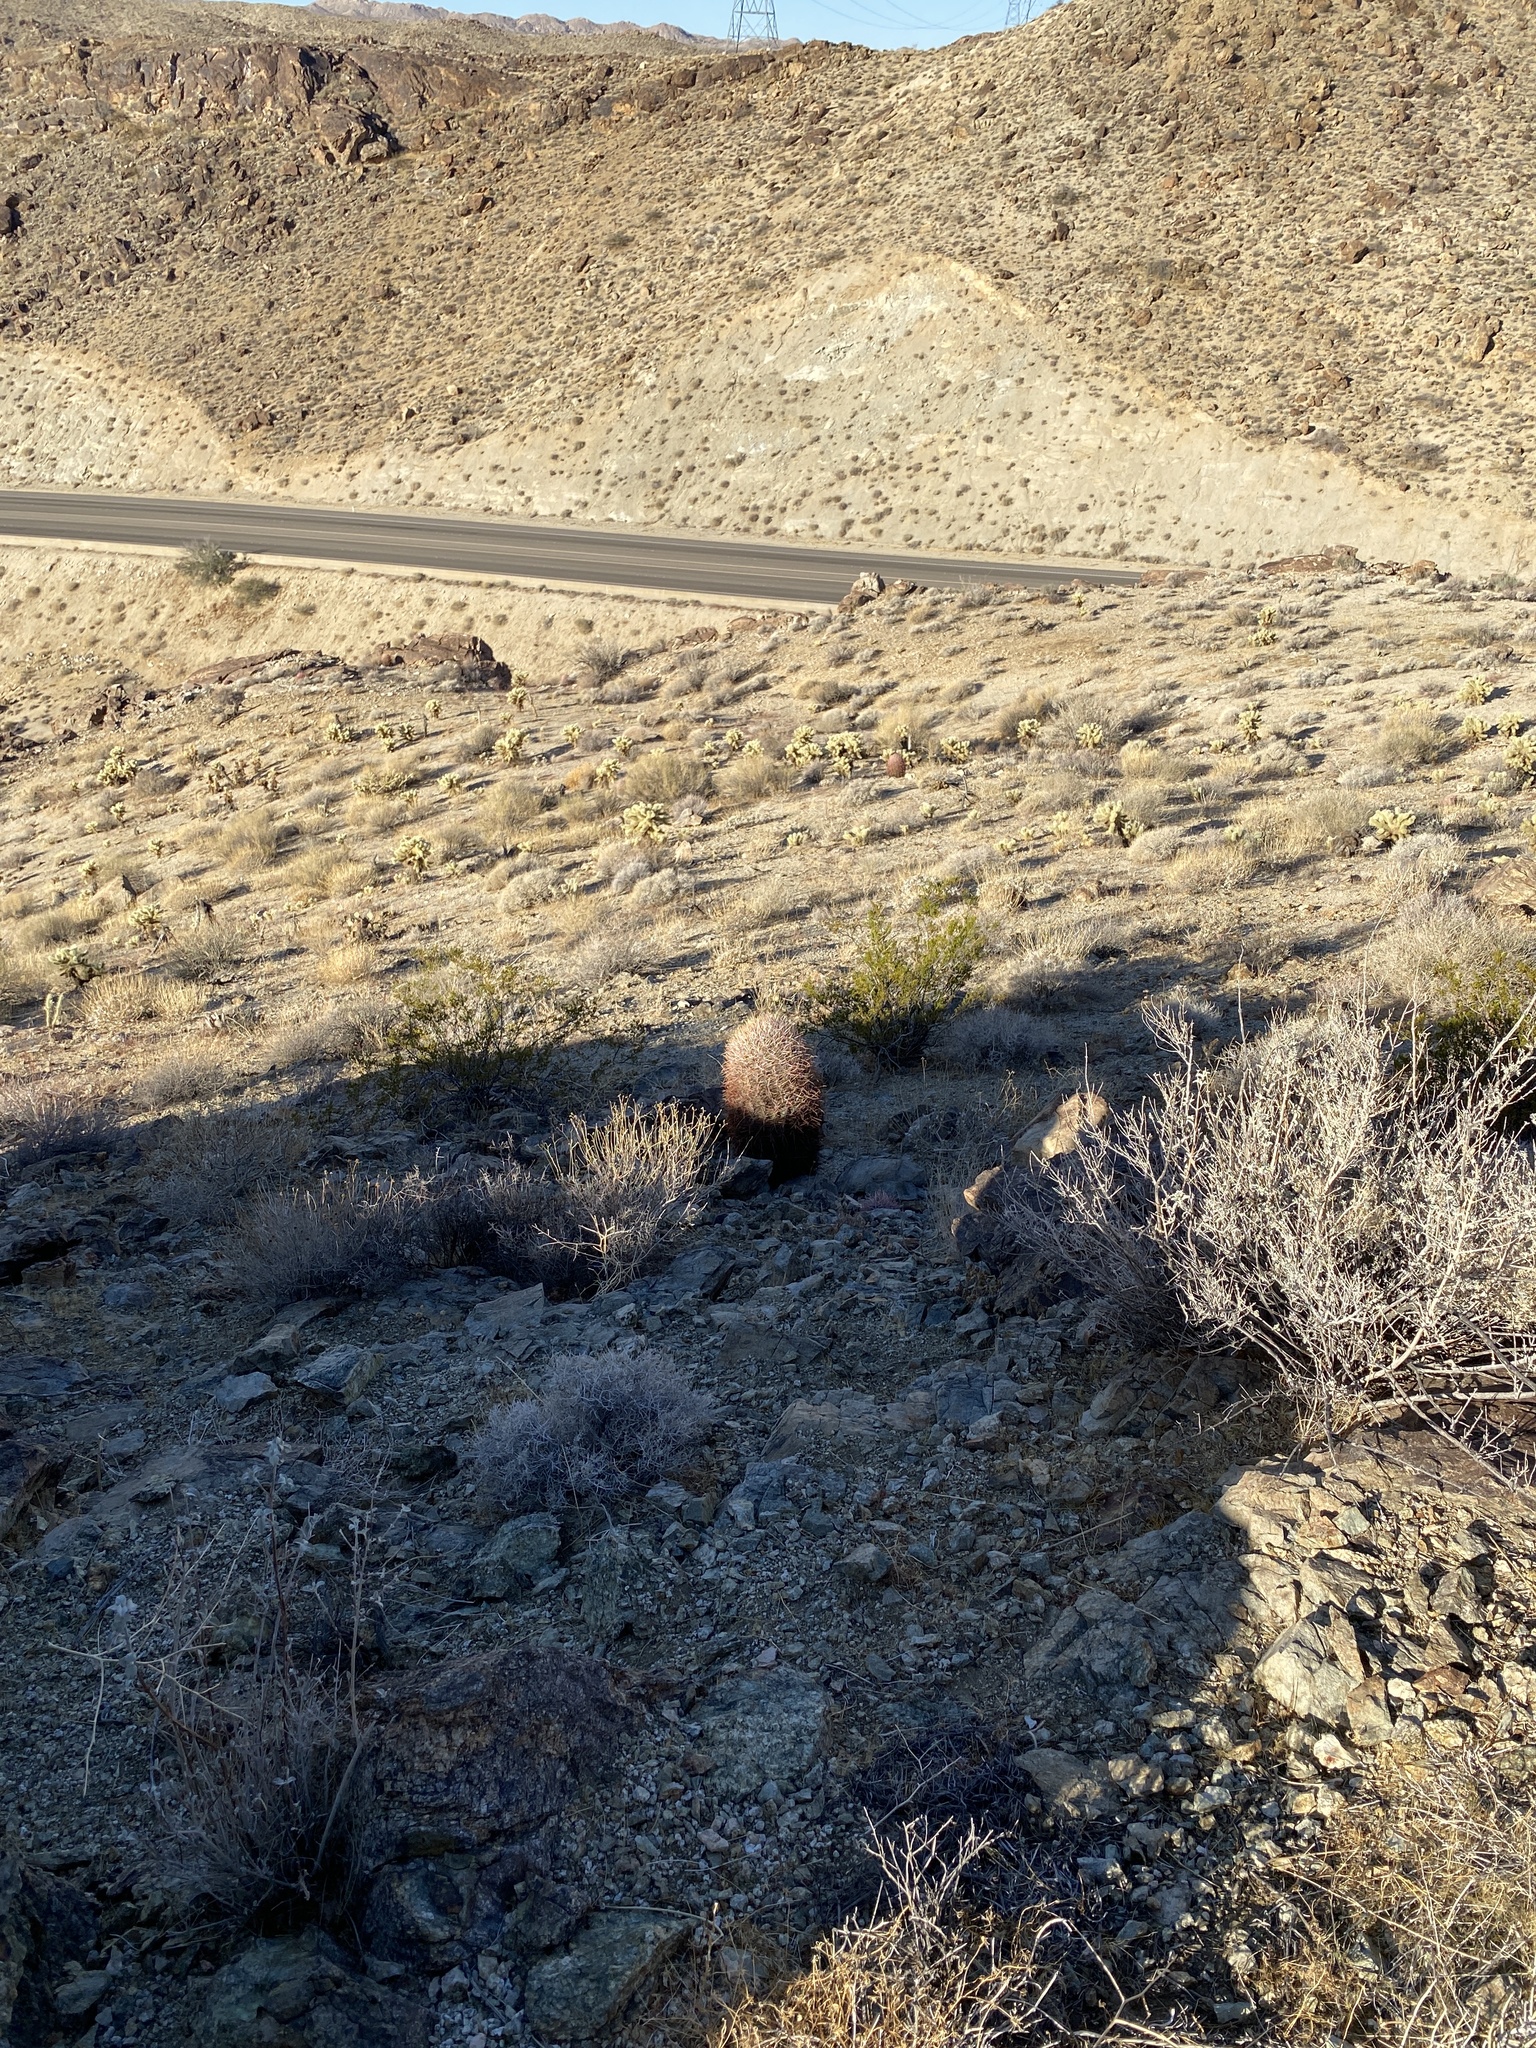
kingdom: Plantae
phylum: Tracheophyta
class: Magnoliopsida
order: Caryophyllales
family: Cactaceae
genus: Ferocactus
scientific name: Ferocactus cylindraceus
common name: California barrel cactus
